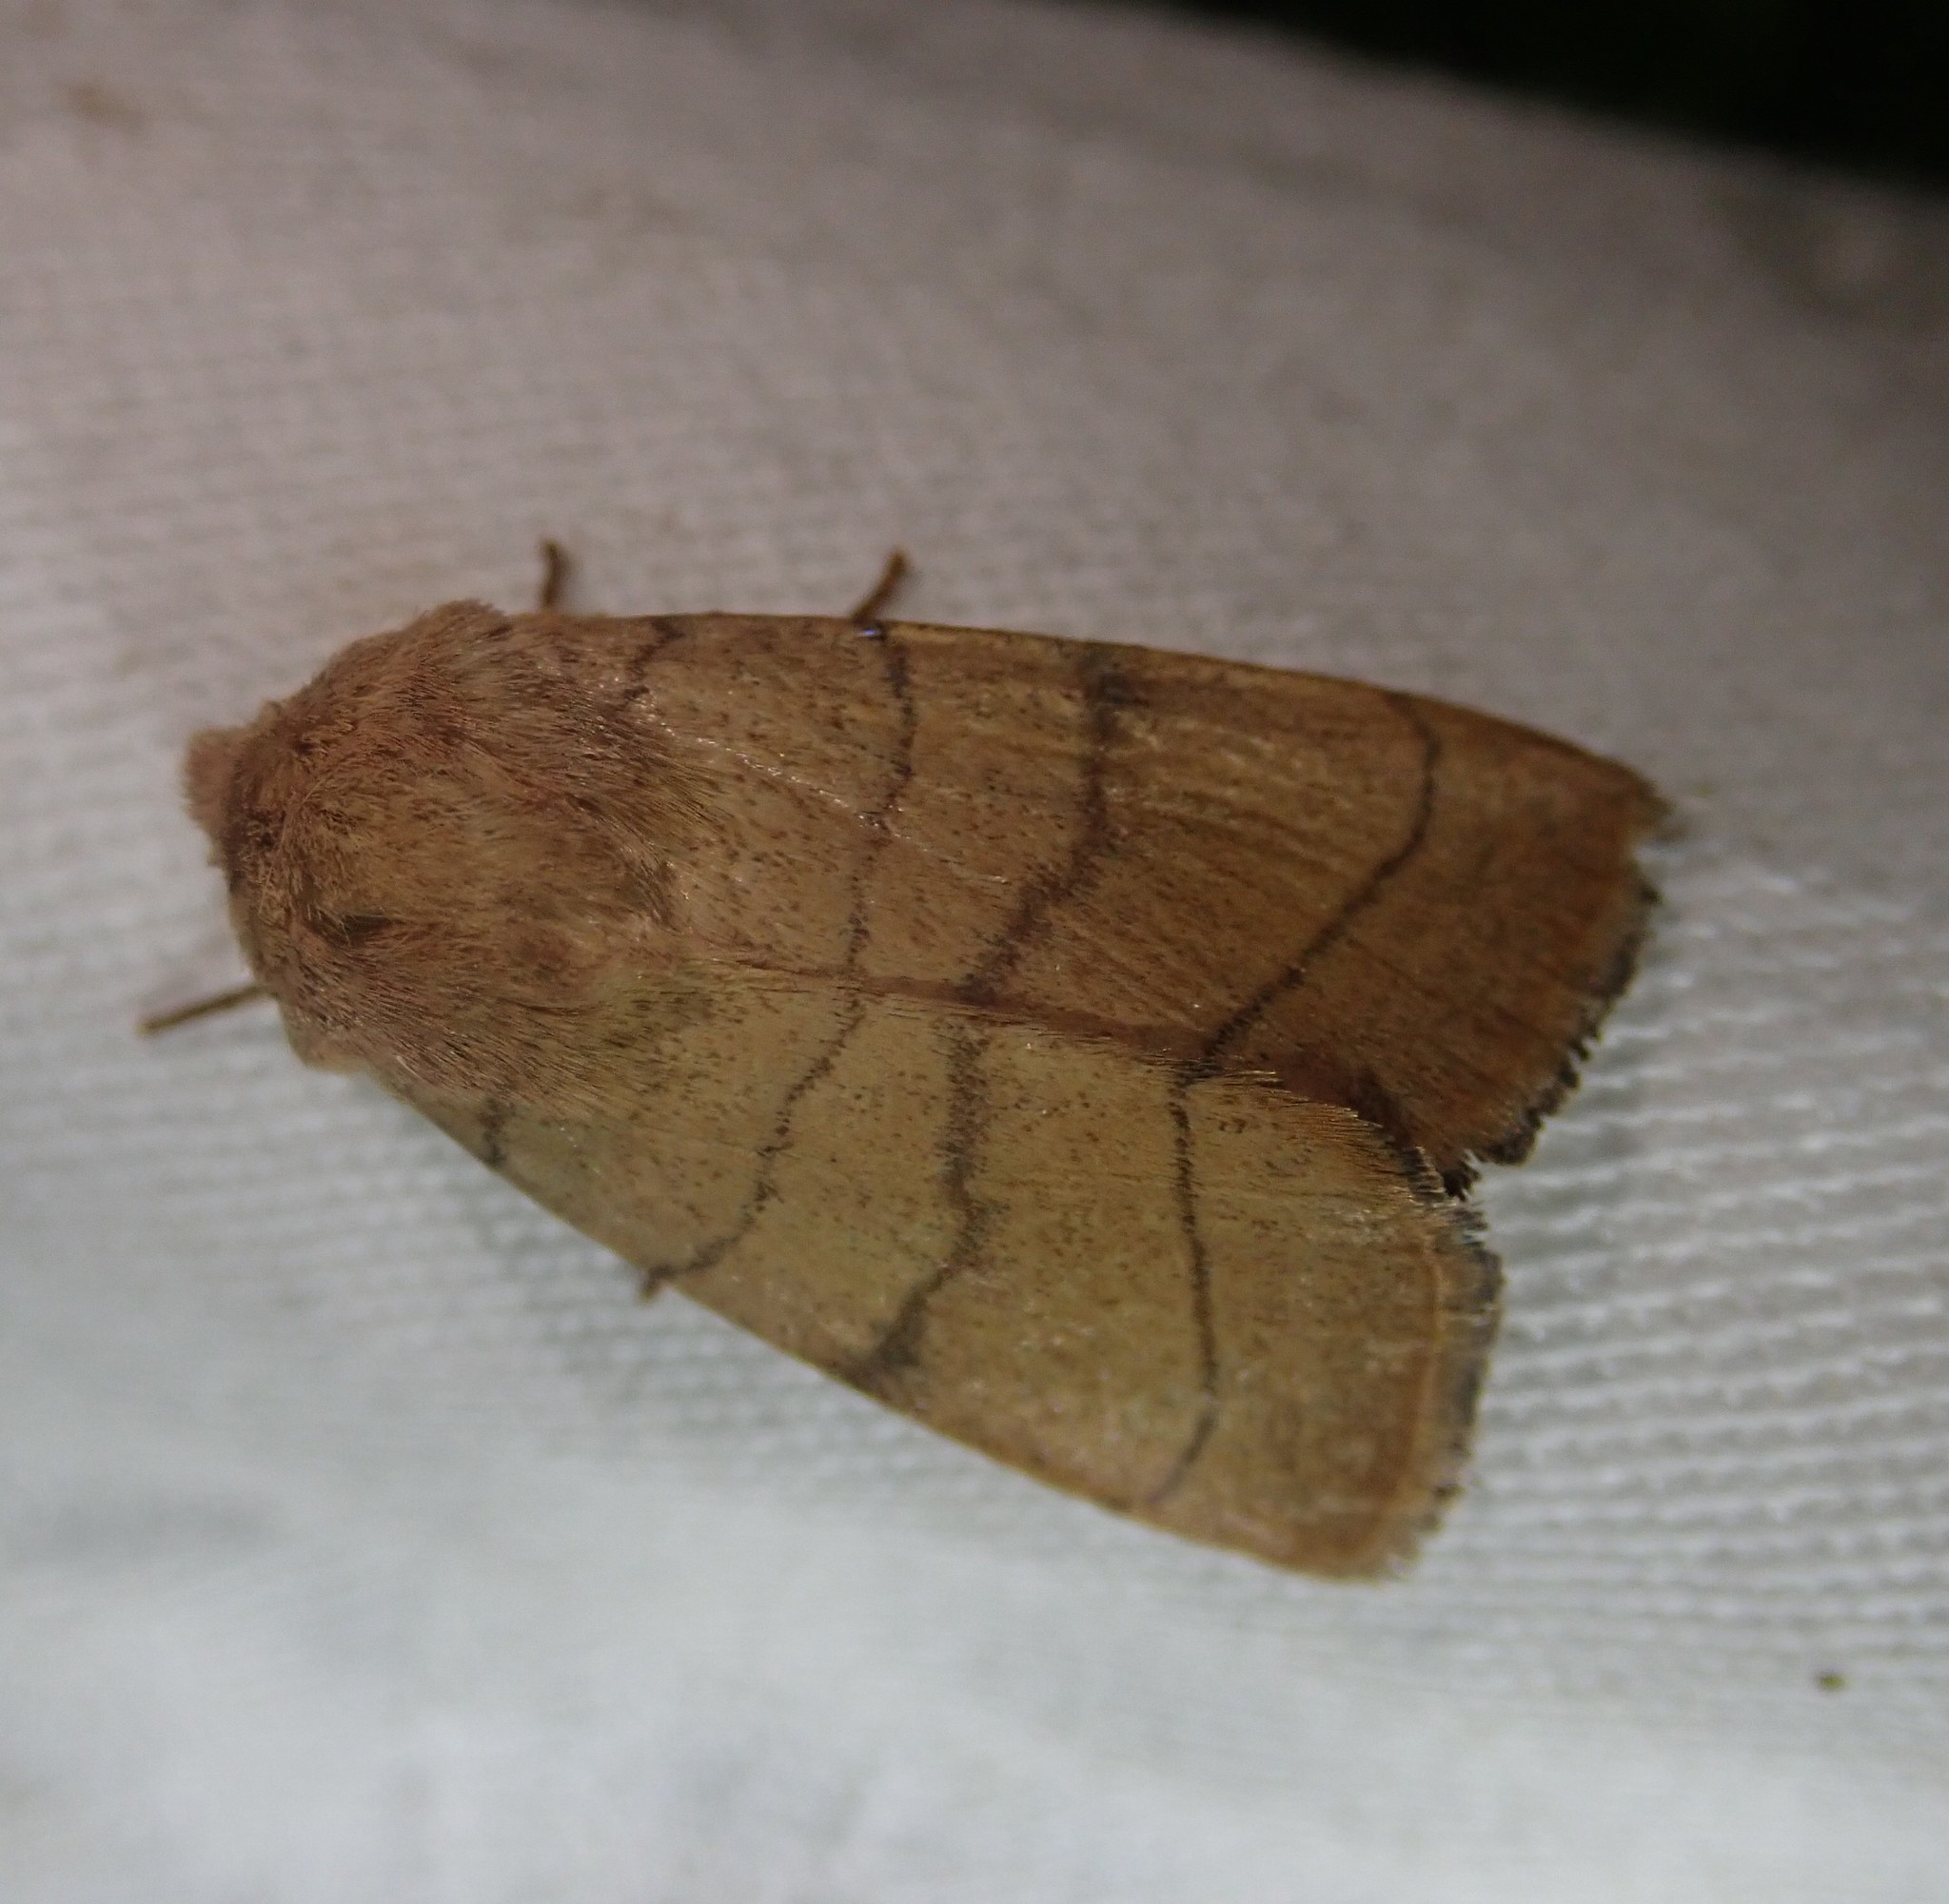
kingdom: Animalia
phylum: Arthropoda
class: Insecta
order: Lepidoptera
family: Noctuidae
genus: Charanyca
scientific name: Charanyca trigrammica
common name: Treble lines
